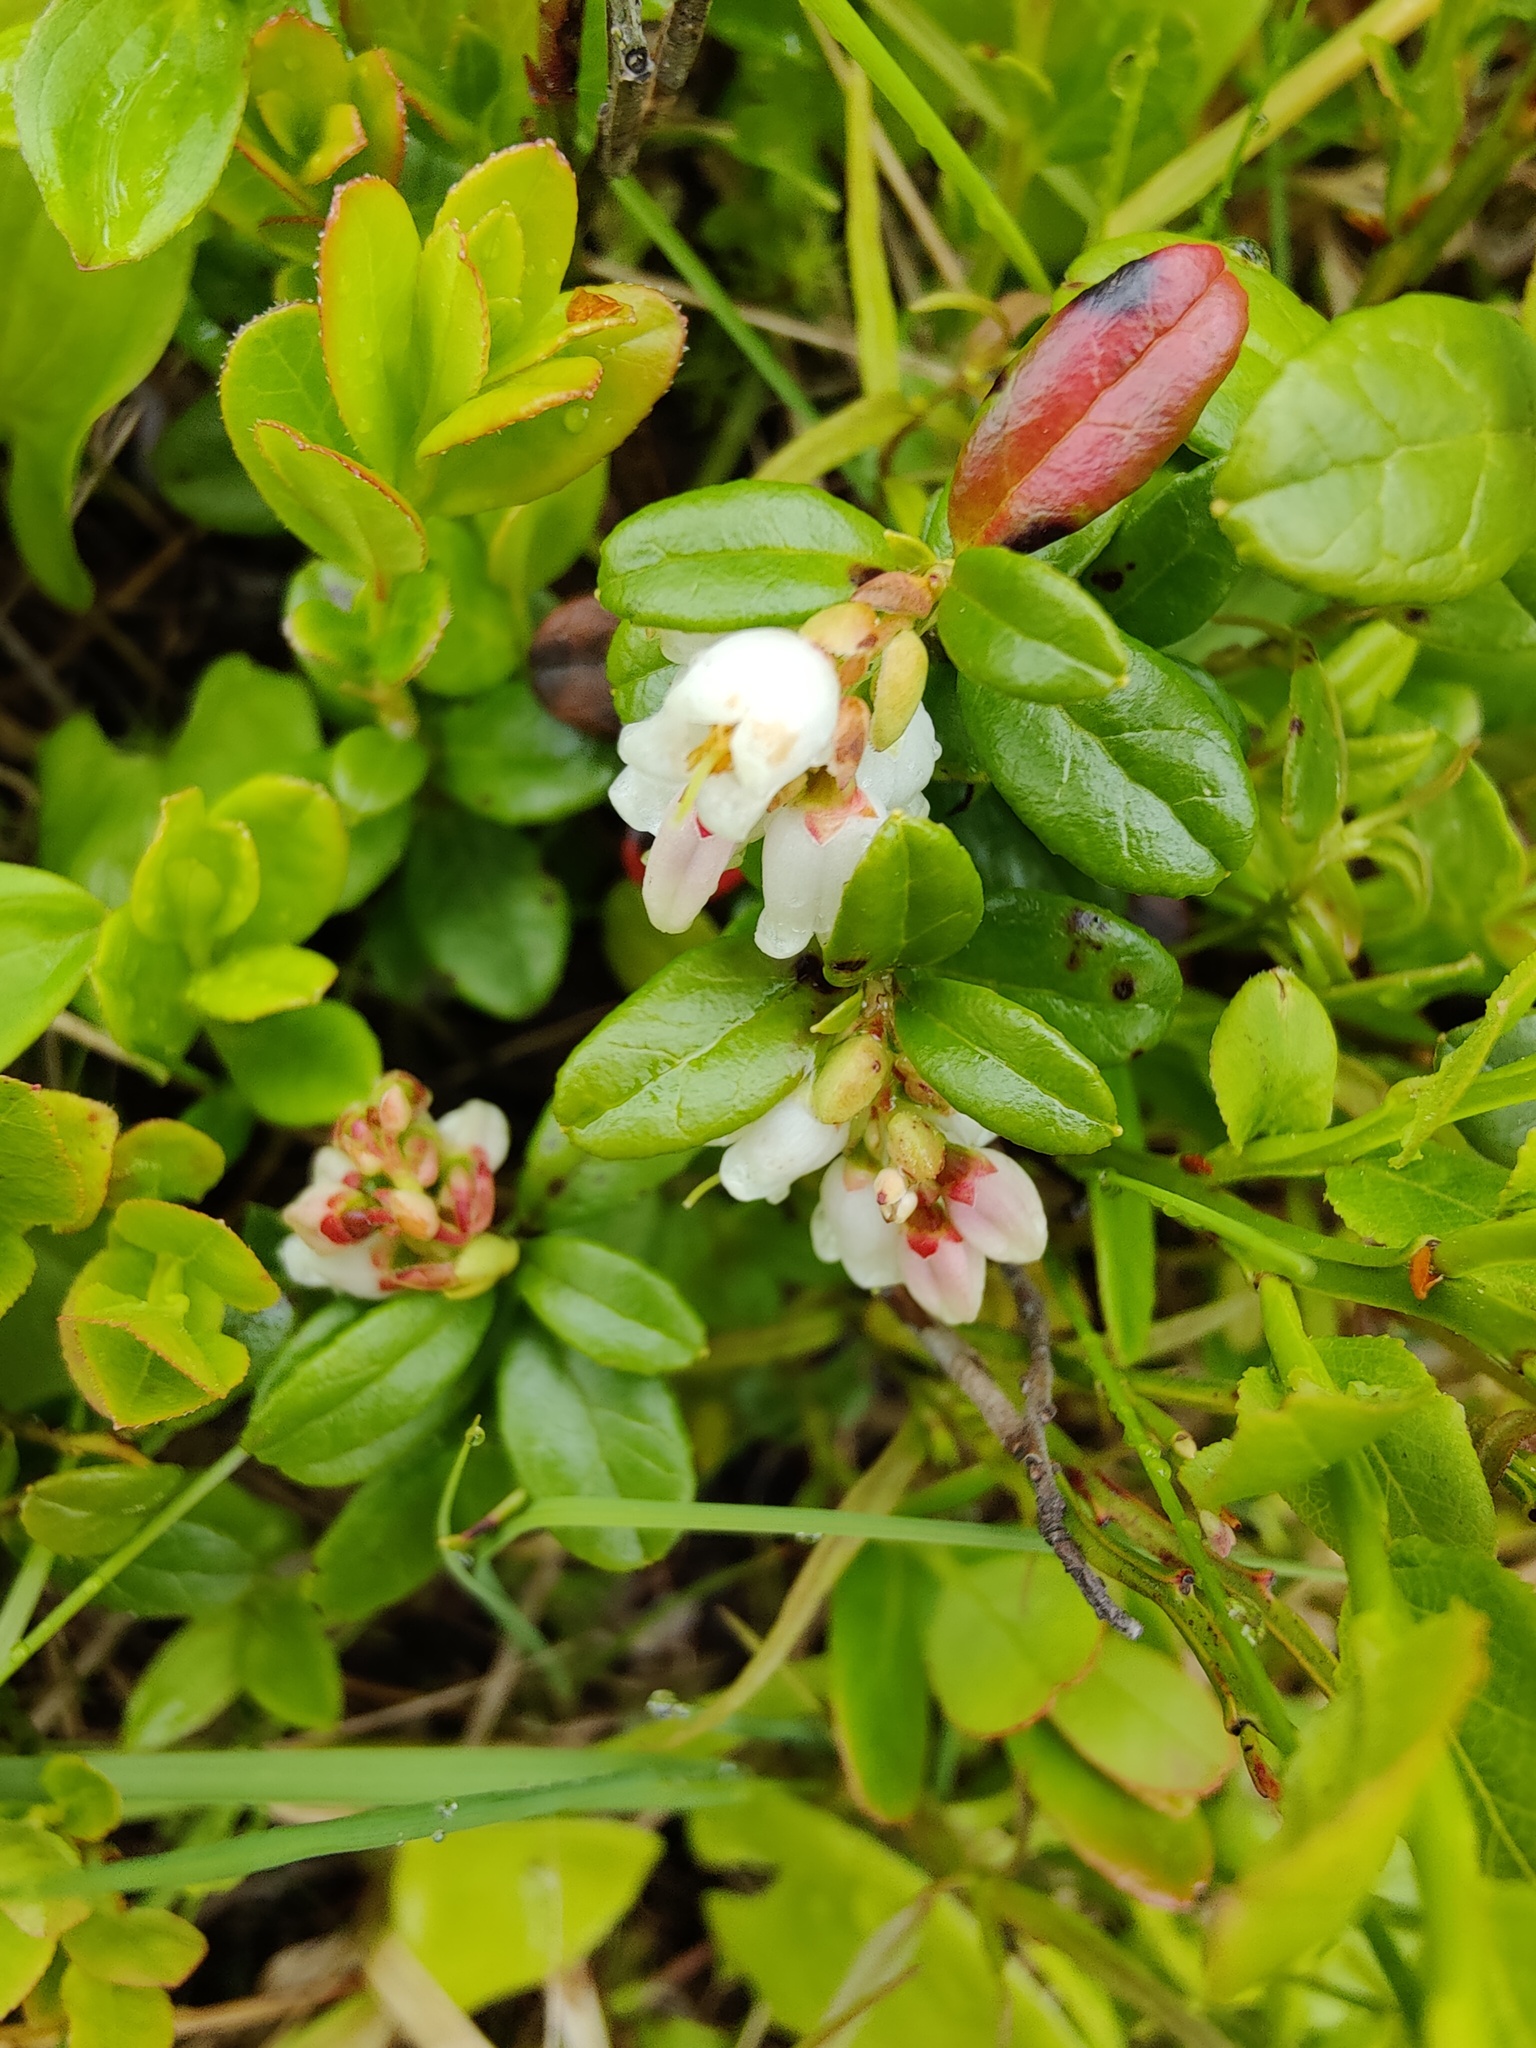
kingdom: Plantae
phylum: Tracheophyta
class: Magnoliopsida
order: Ericales
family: Ericaceae
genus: Vaccinium
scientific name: Vaccinium vitis-idaea
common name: Cowberry
